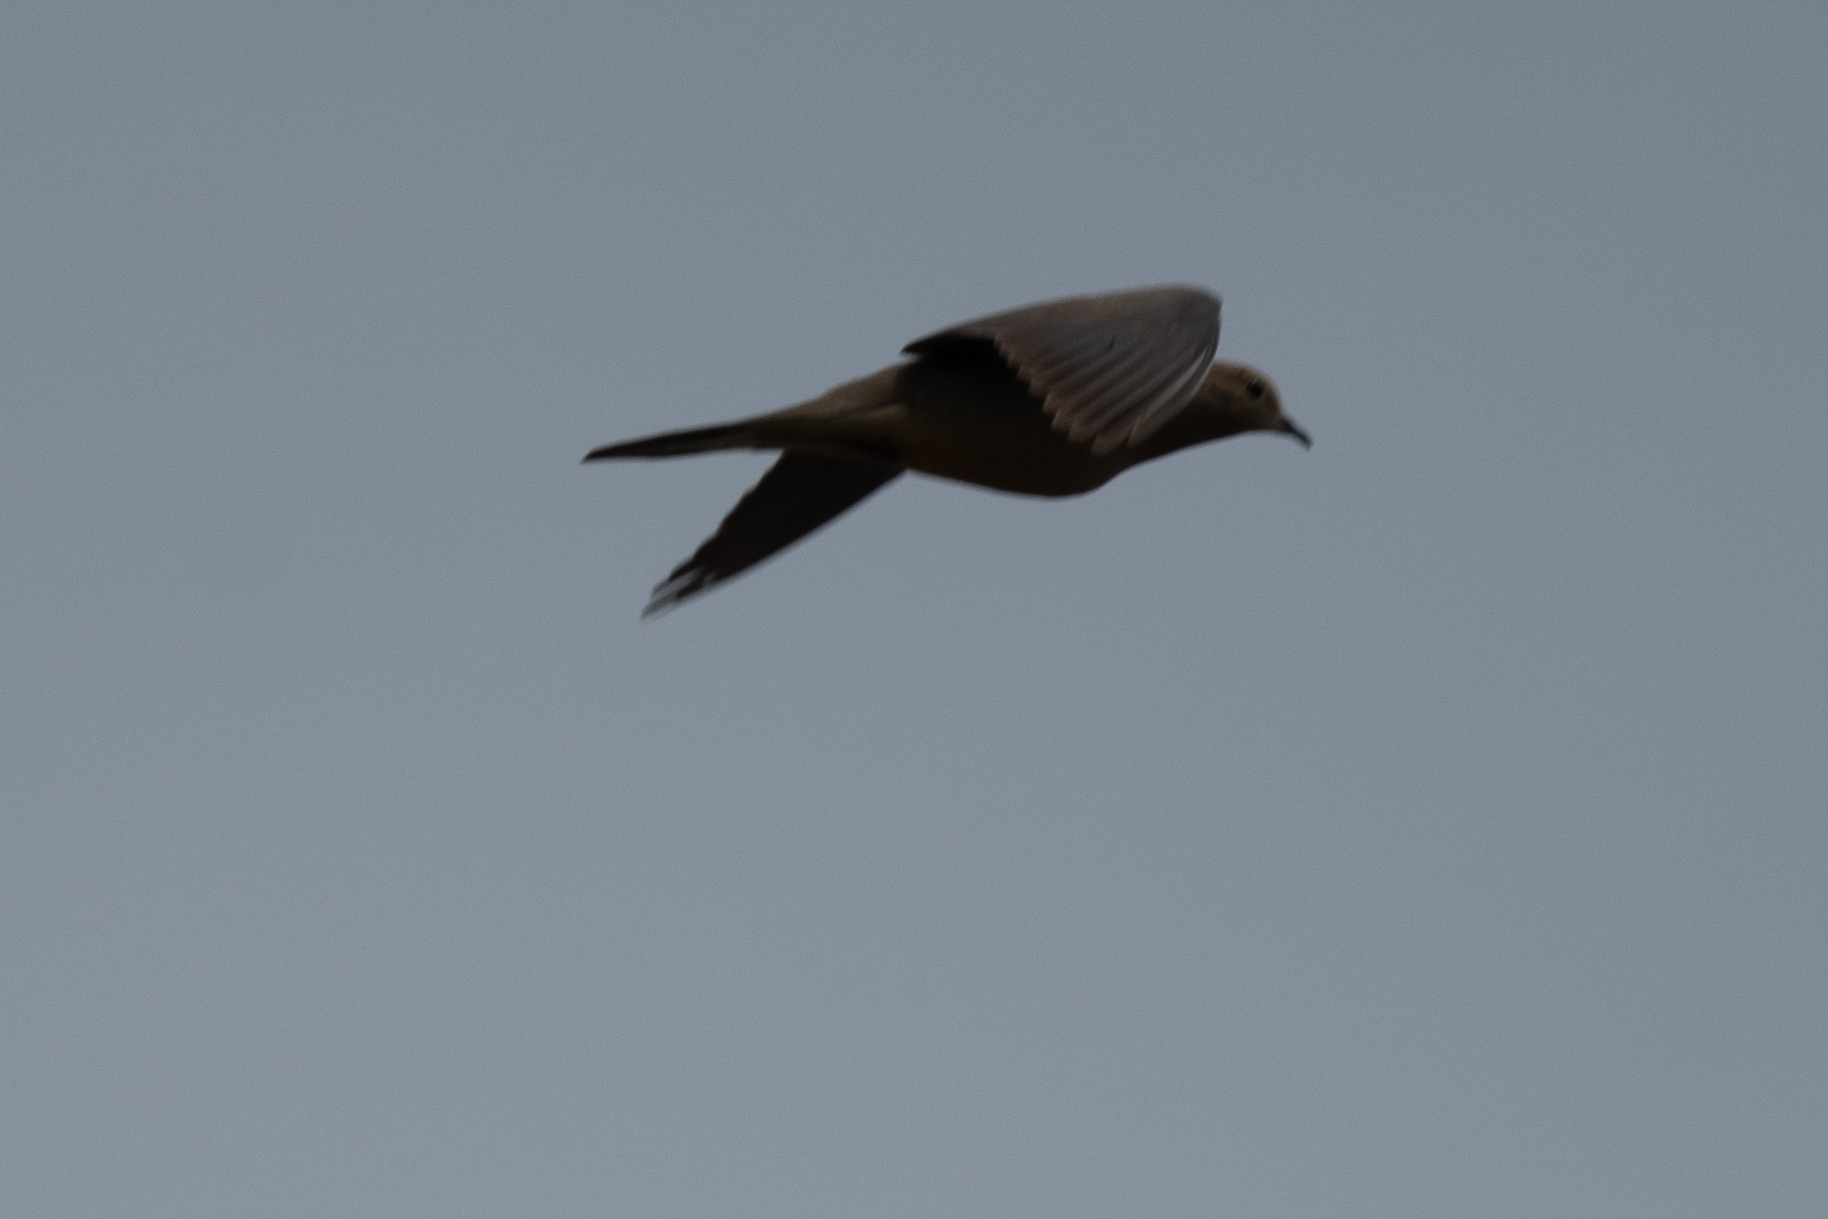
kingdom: Animalia
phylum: Chordata
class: Aves
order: Columbiformes
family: Columbidae
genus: Zenaida
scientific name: Zenaida macroura
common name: Mourning dove
